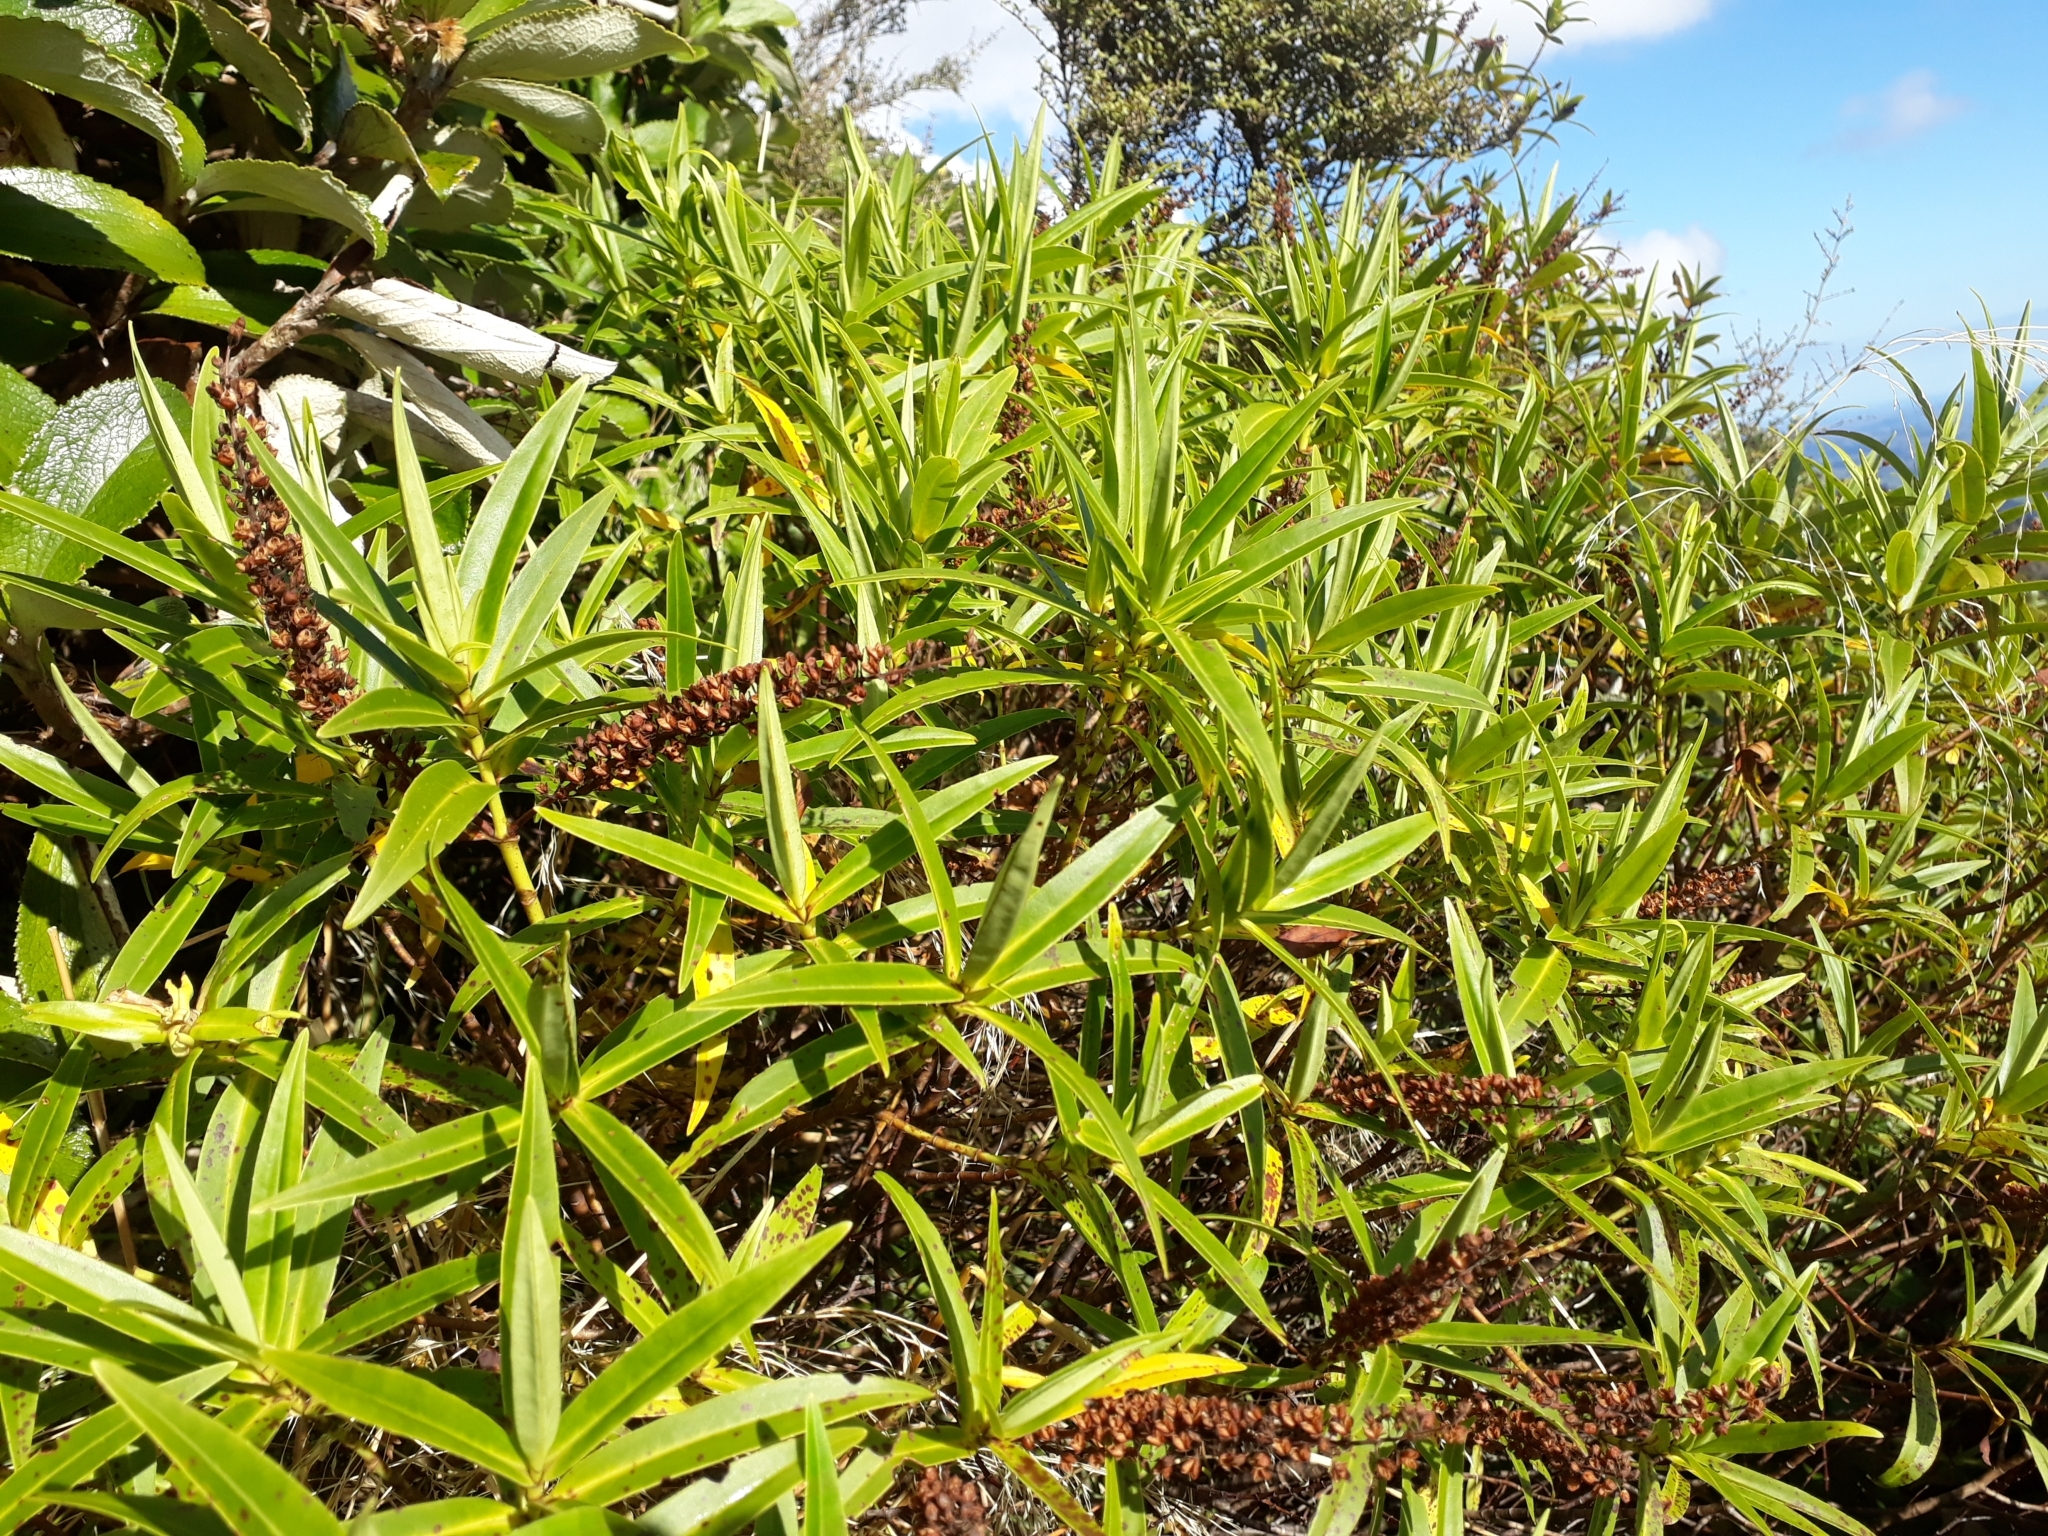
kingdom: Plantae
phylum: Tracheophyta
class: Magnoliopsida
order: Lamiales
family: Plantaginaceae
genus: Veronica
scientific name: Veronica stricta
